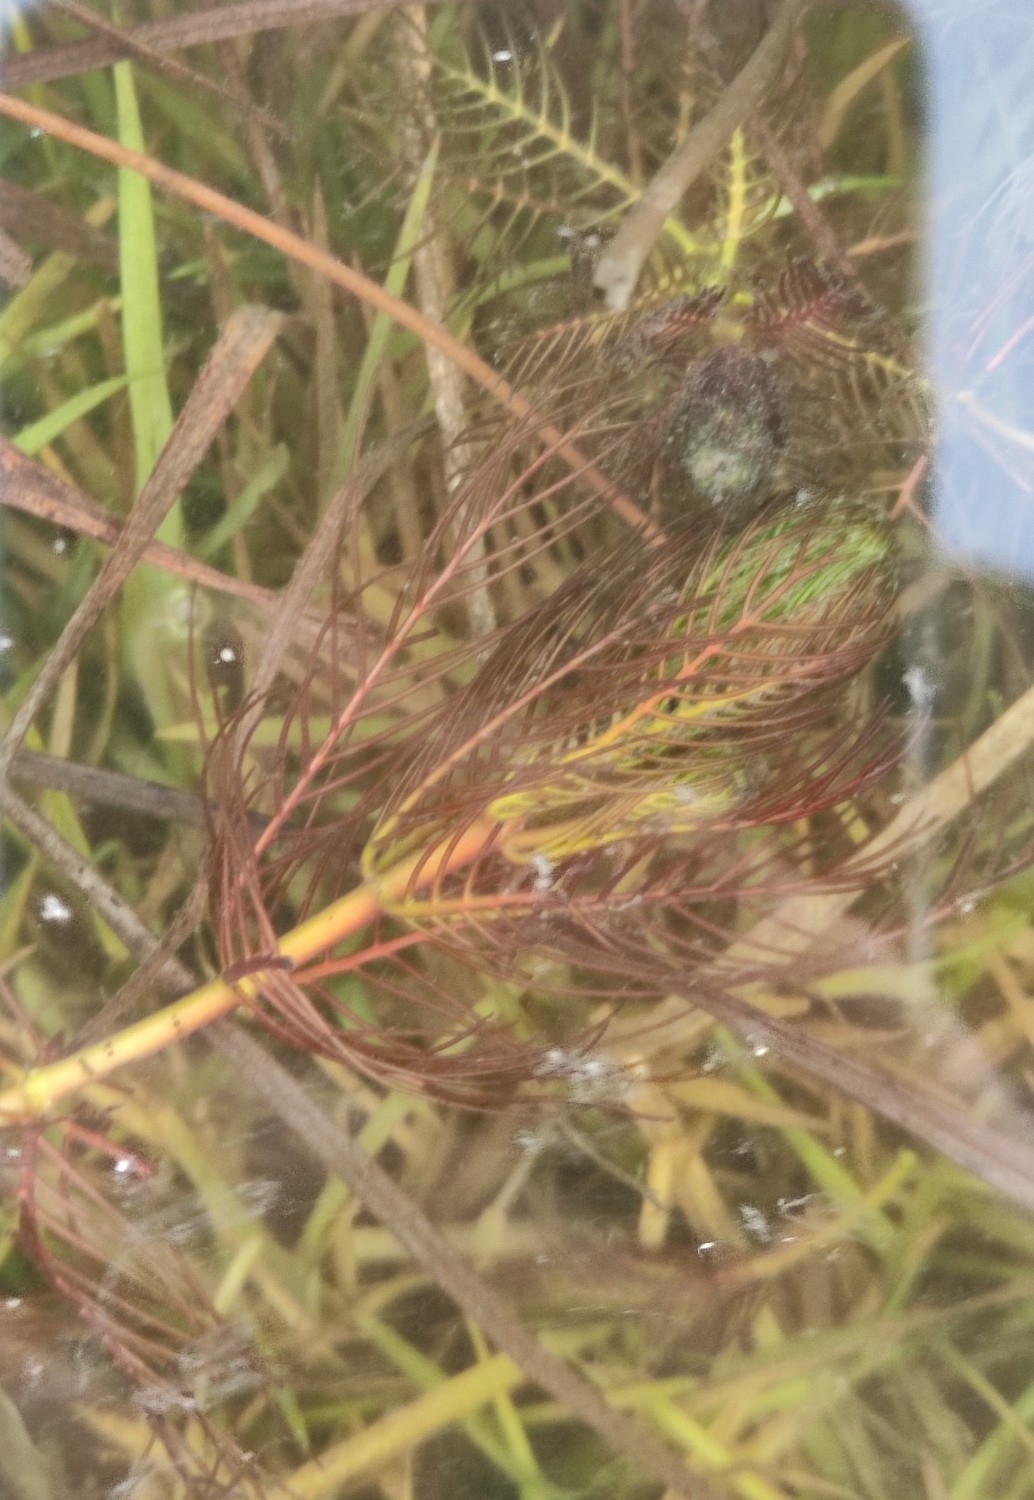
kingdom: Plantae
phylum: Tracheophyta
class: Magnoliopsida
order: Saxifragales
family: Haloragaceae
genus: Myriophyllum
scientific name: Myriophyllum sibiricum
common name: Siberian water-milfoil
